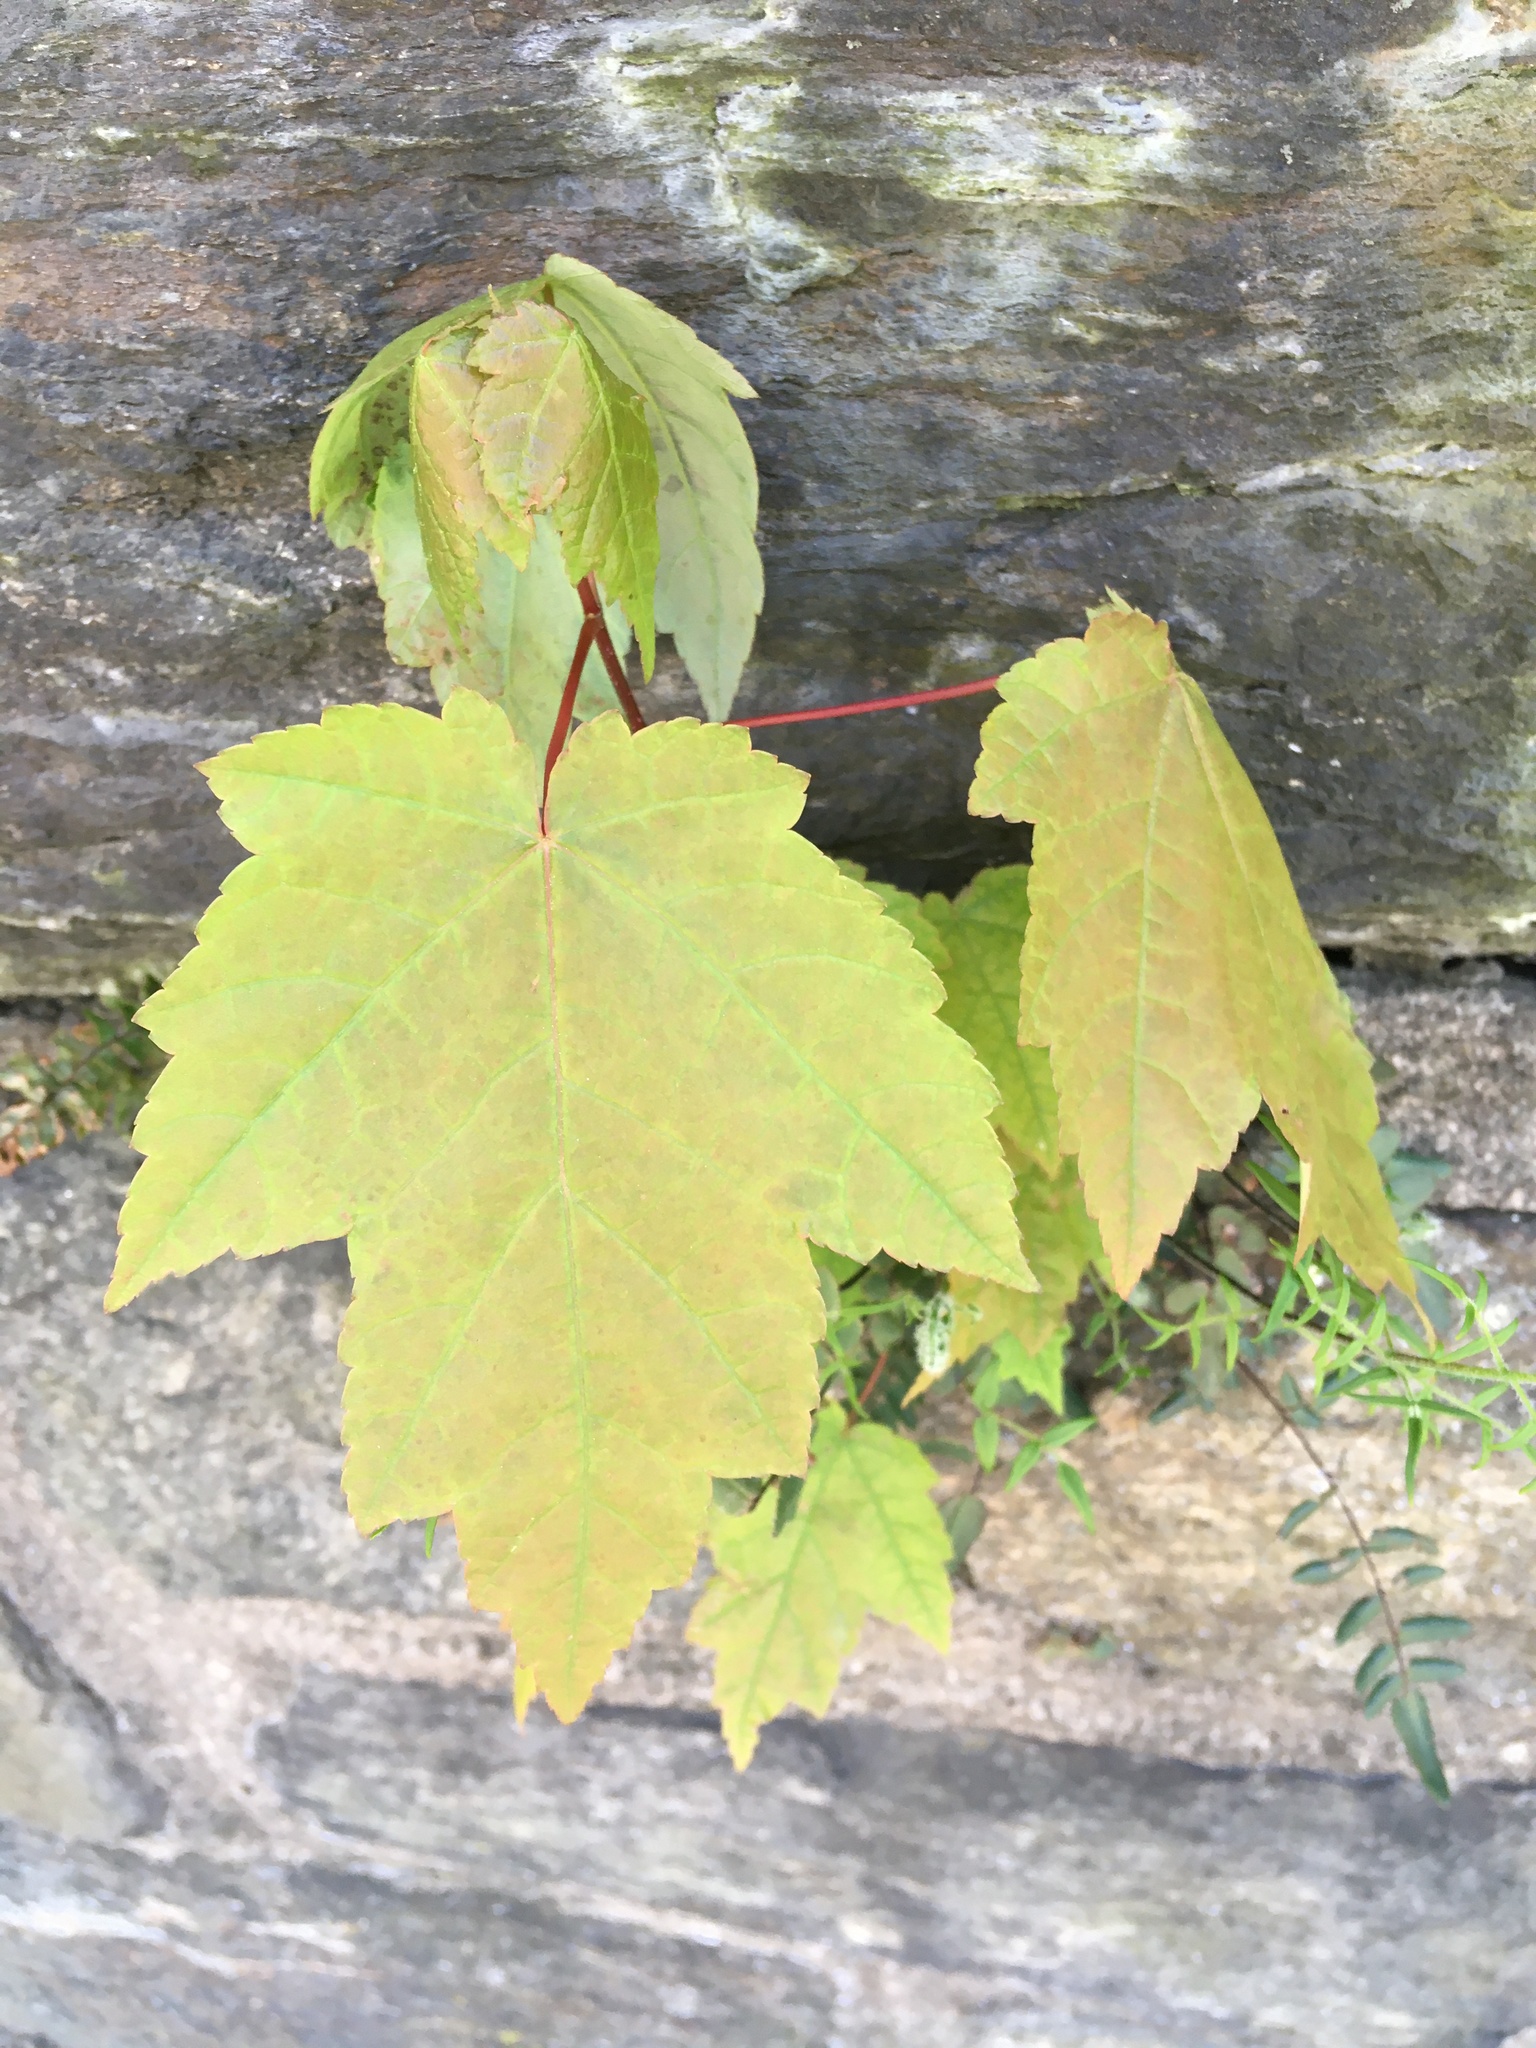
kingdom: Plantae
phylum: Tracheophyta
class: Magnoliopsida
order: Sapindales
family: Sapindaceae
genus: Acer
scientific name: Acer rubrum
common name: Red maple
